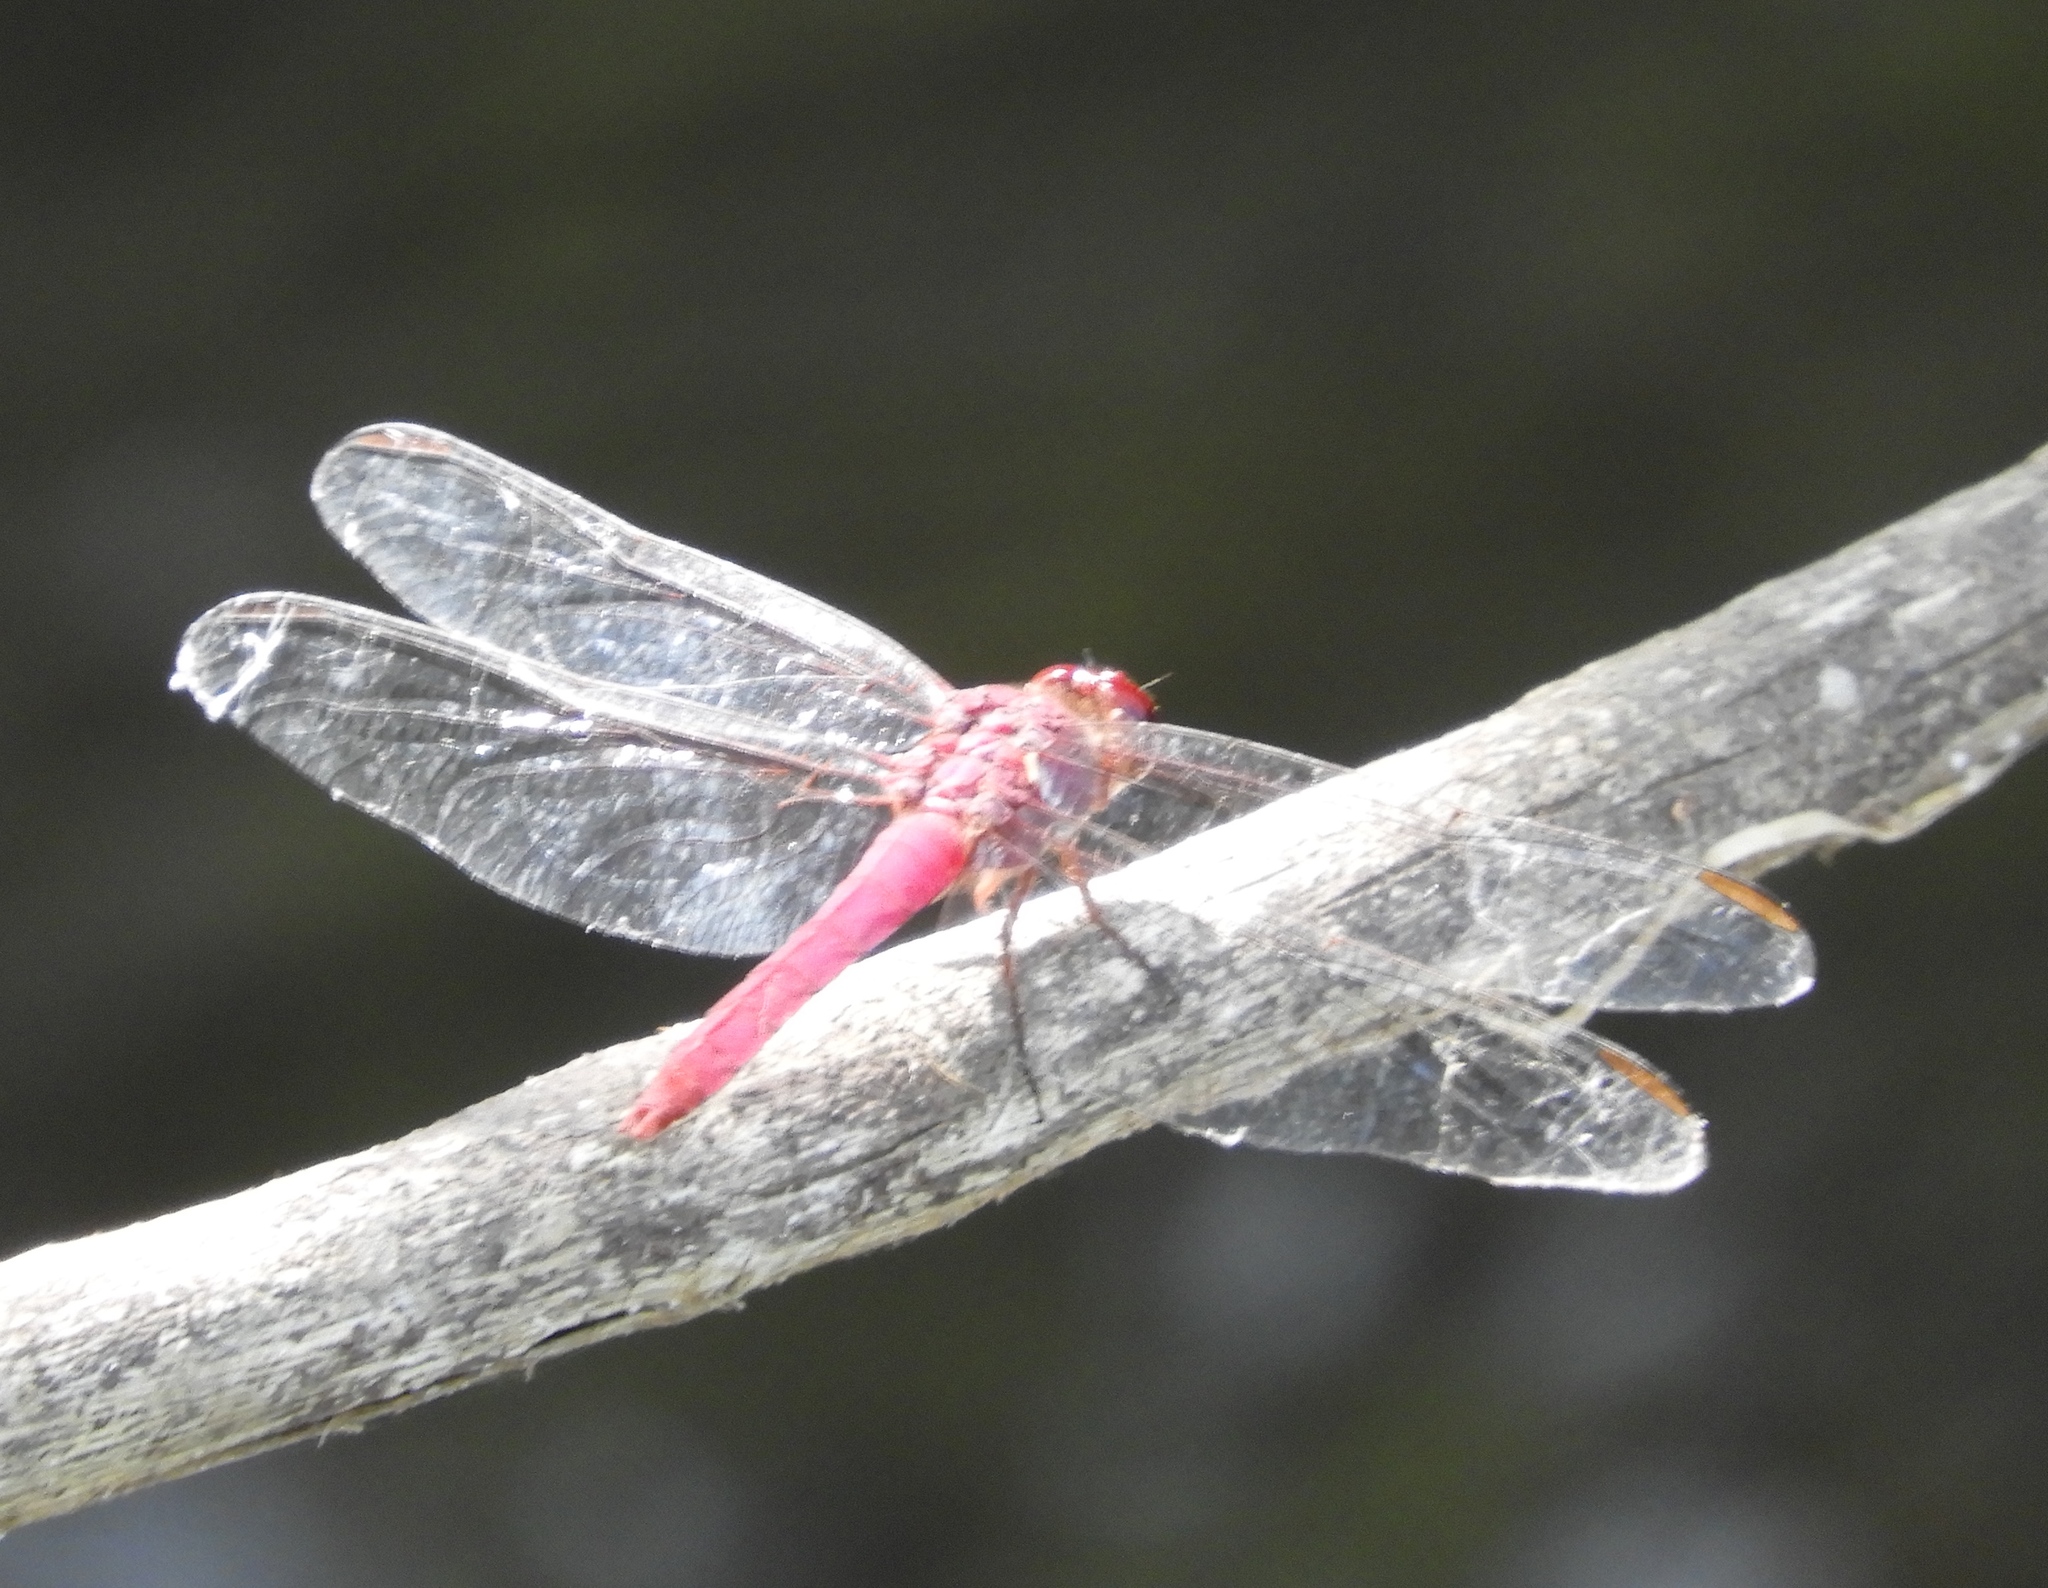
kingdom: Animalia
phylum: Arthropoda
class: Insecta
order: Odonata
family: Libellulidae
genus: Orthemis
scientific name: Orthemis discolor
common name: Carmine skimmer
